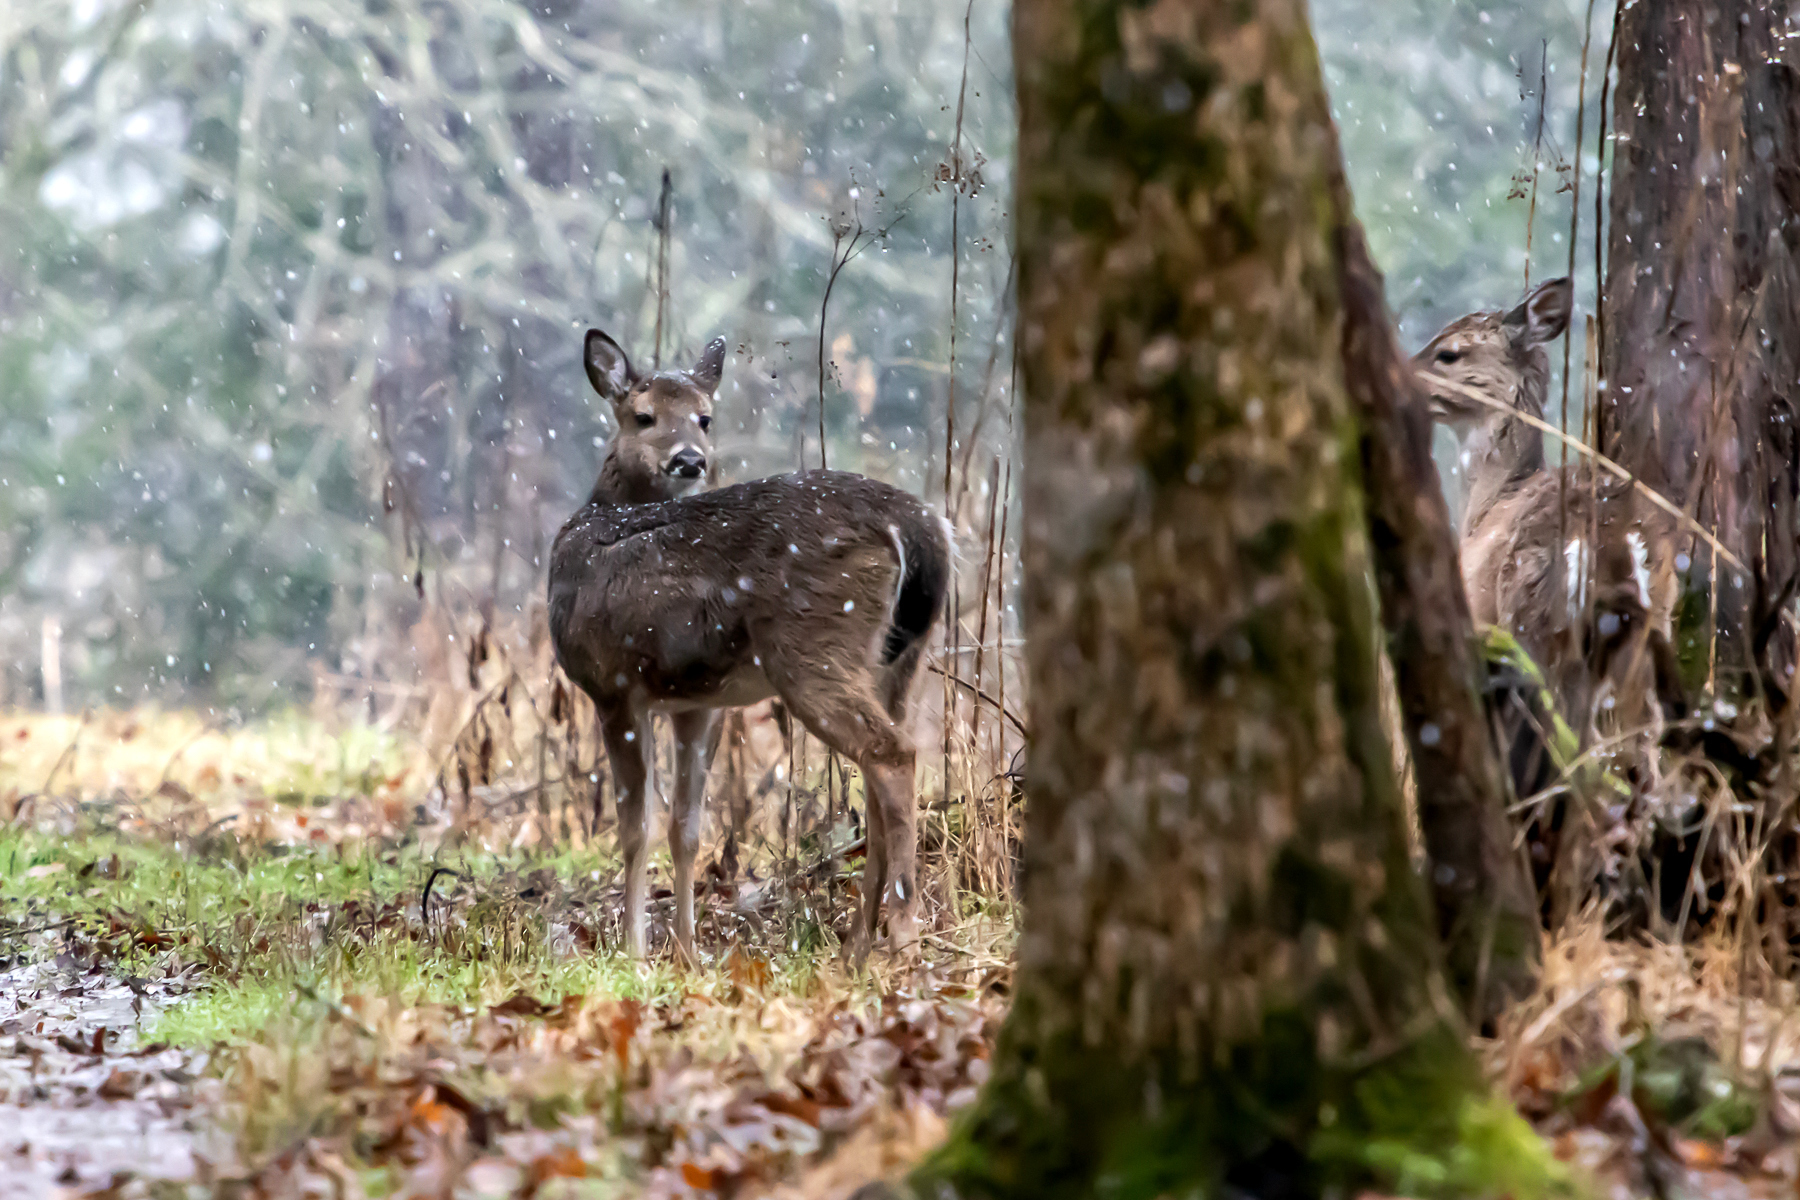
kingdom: Animalia
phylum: Chordata
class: Mammalia
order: Artiodactyla
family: Cervidae
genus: Odocoileus
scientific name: Odocoileus virginianus
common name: White-tailed deer
